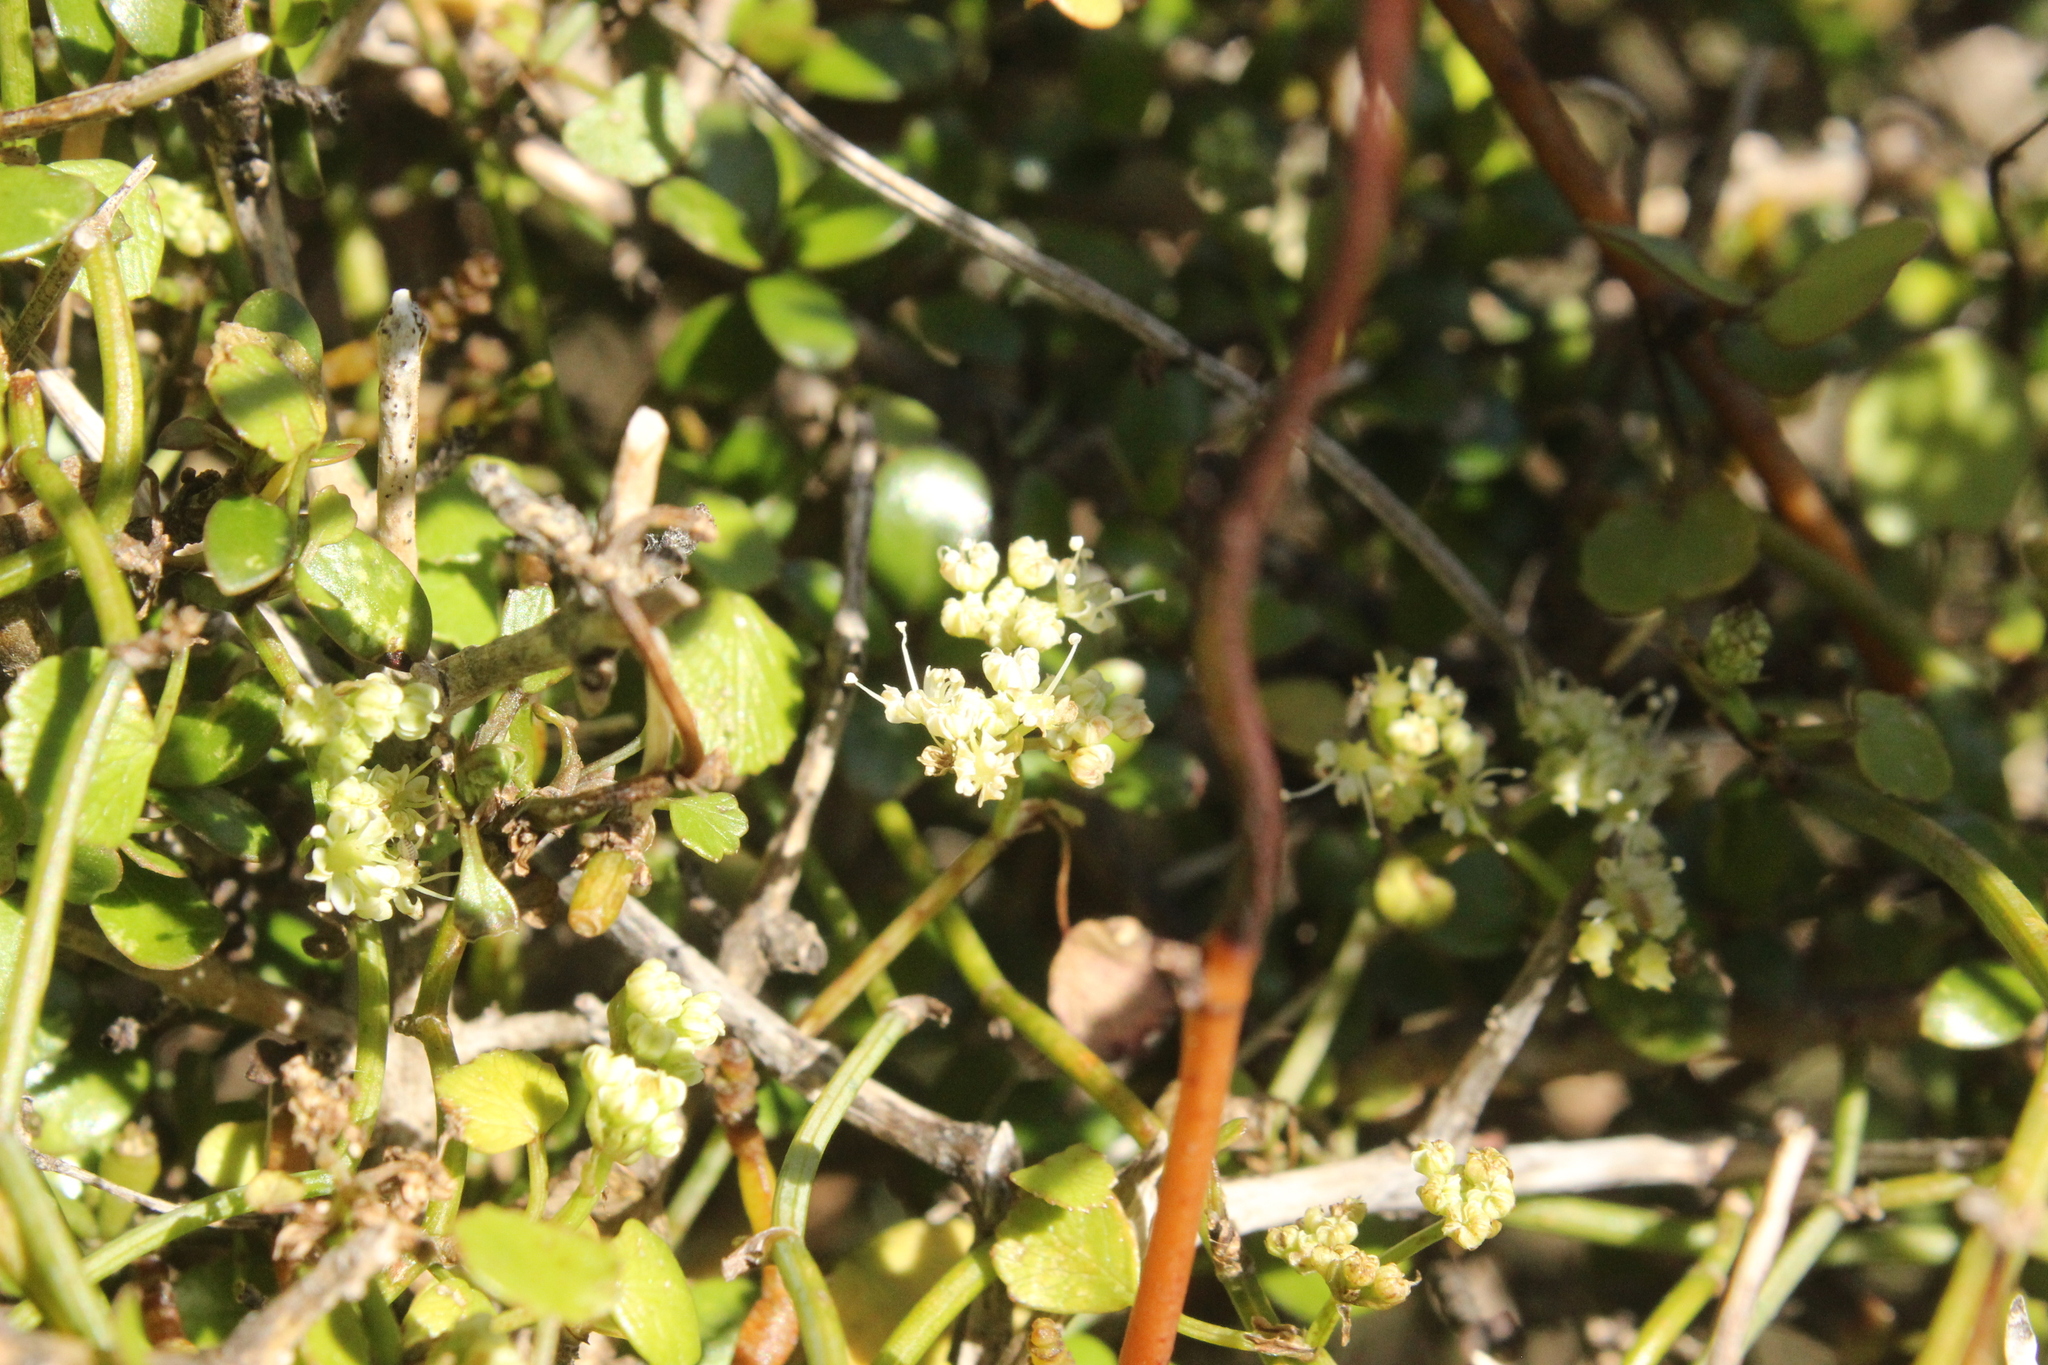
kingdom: Plantae
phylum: Tracheophyta
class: Magnoliopsida
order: Apiales
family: Apiaceae
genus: Scandia
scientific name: Scandia geniculata
